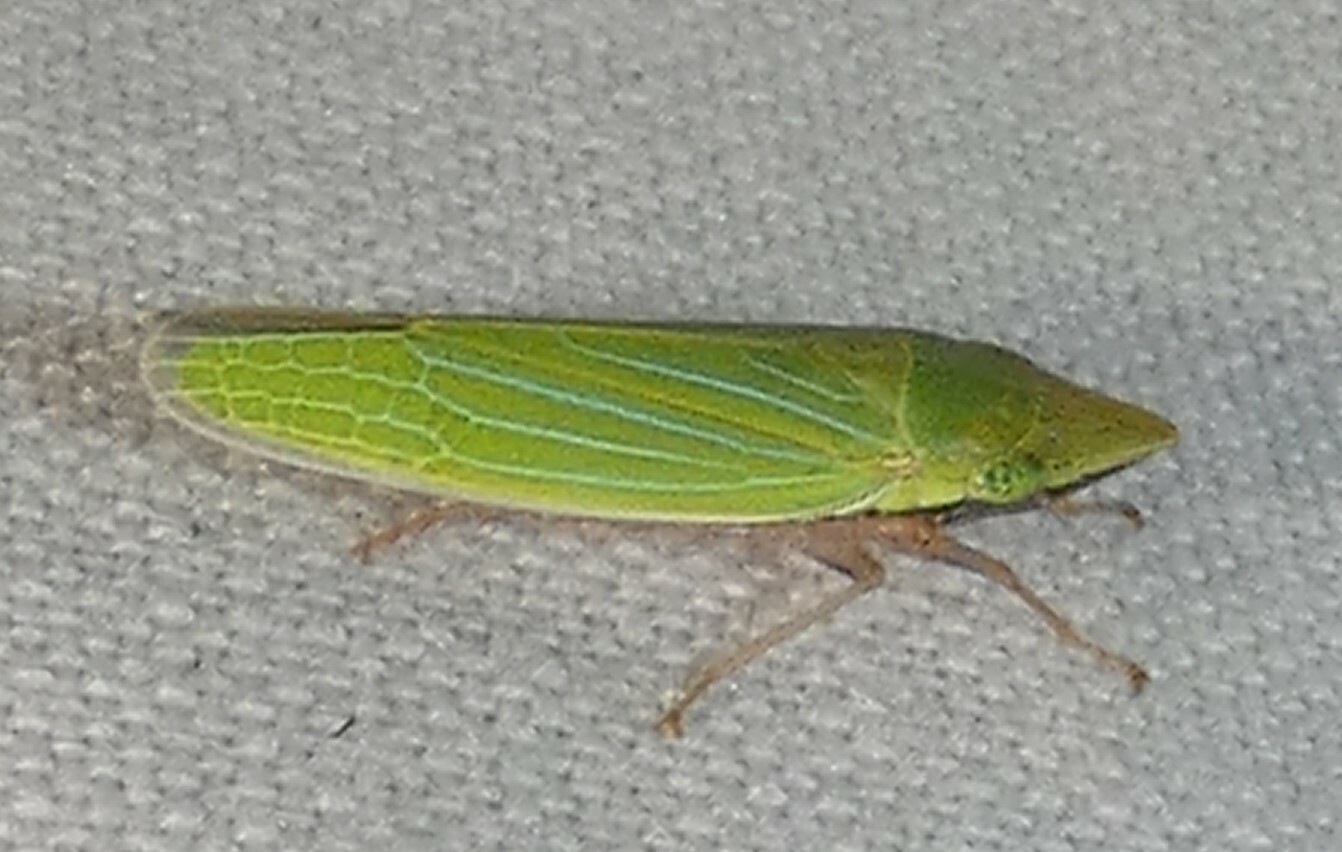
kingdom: Animalia
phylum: Arthropoda
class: Insecta
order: Hemiptera
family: Cicadellidae
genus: Draeculacephala
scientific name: Draeculacephala robinsoni
